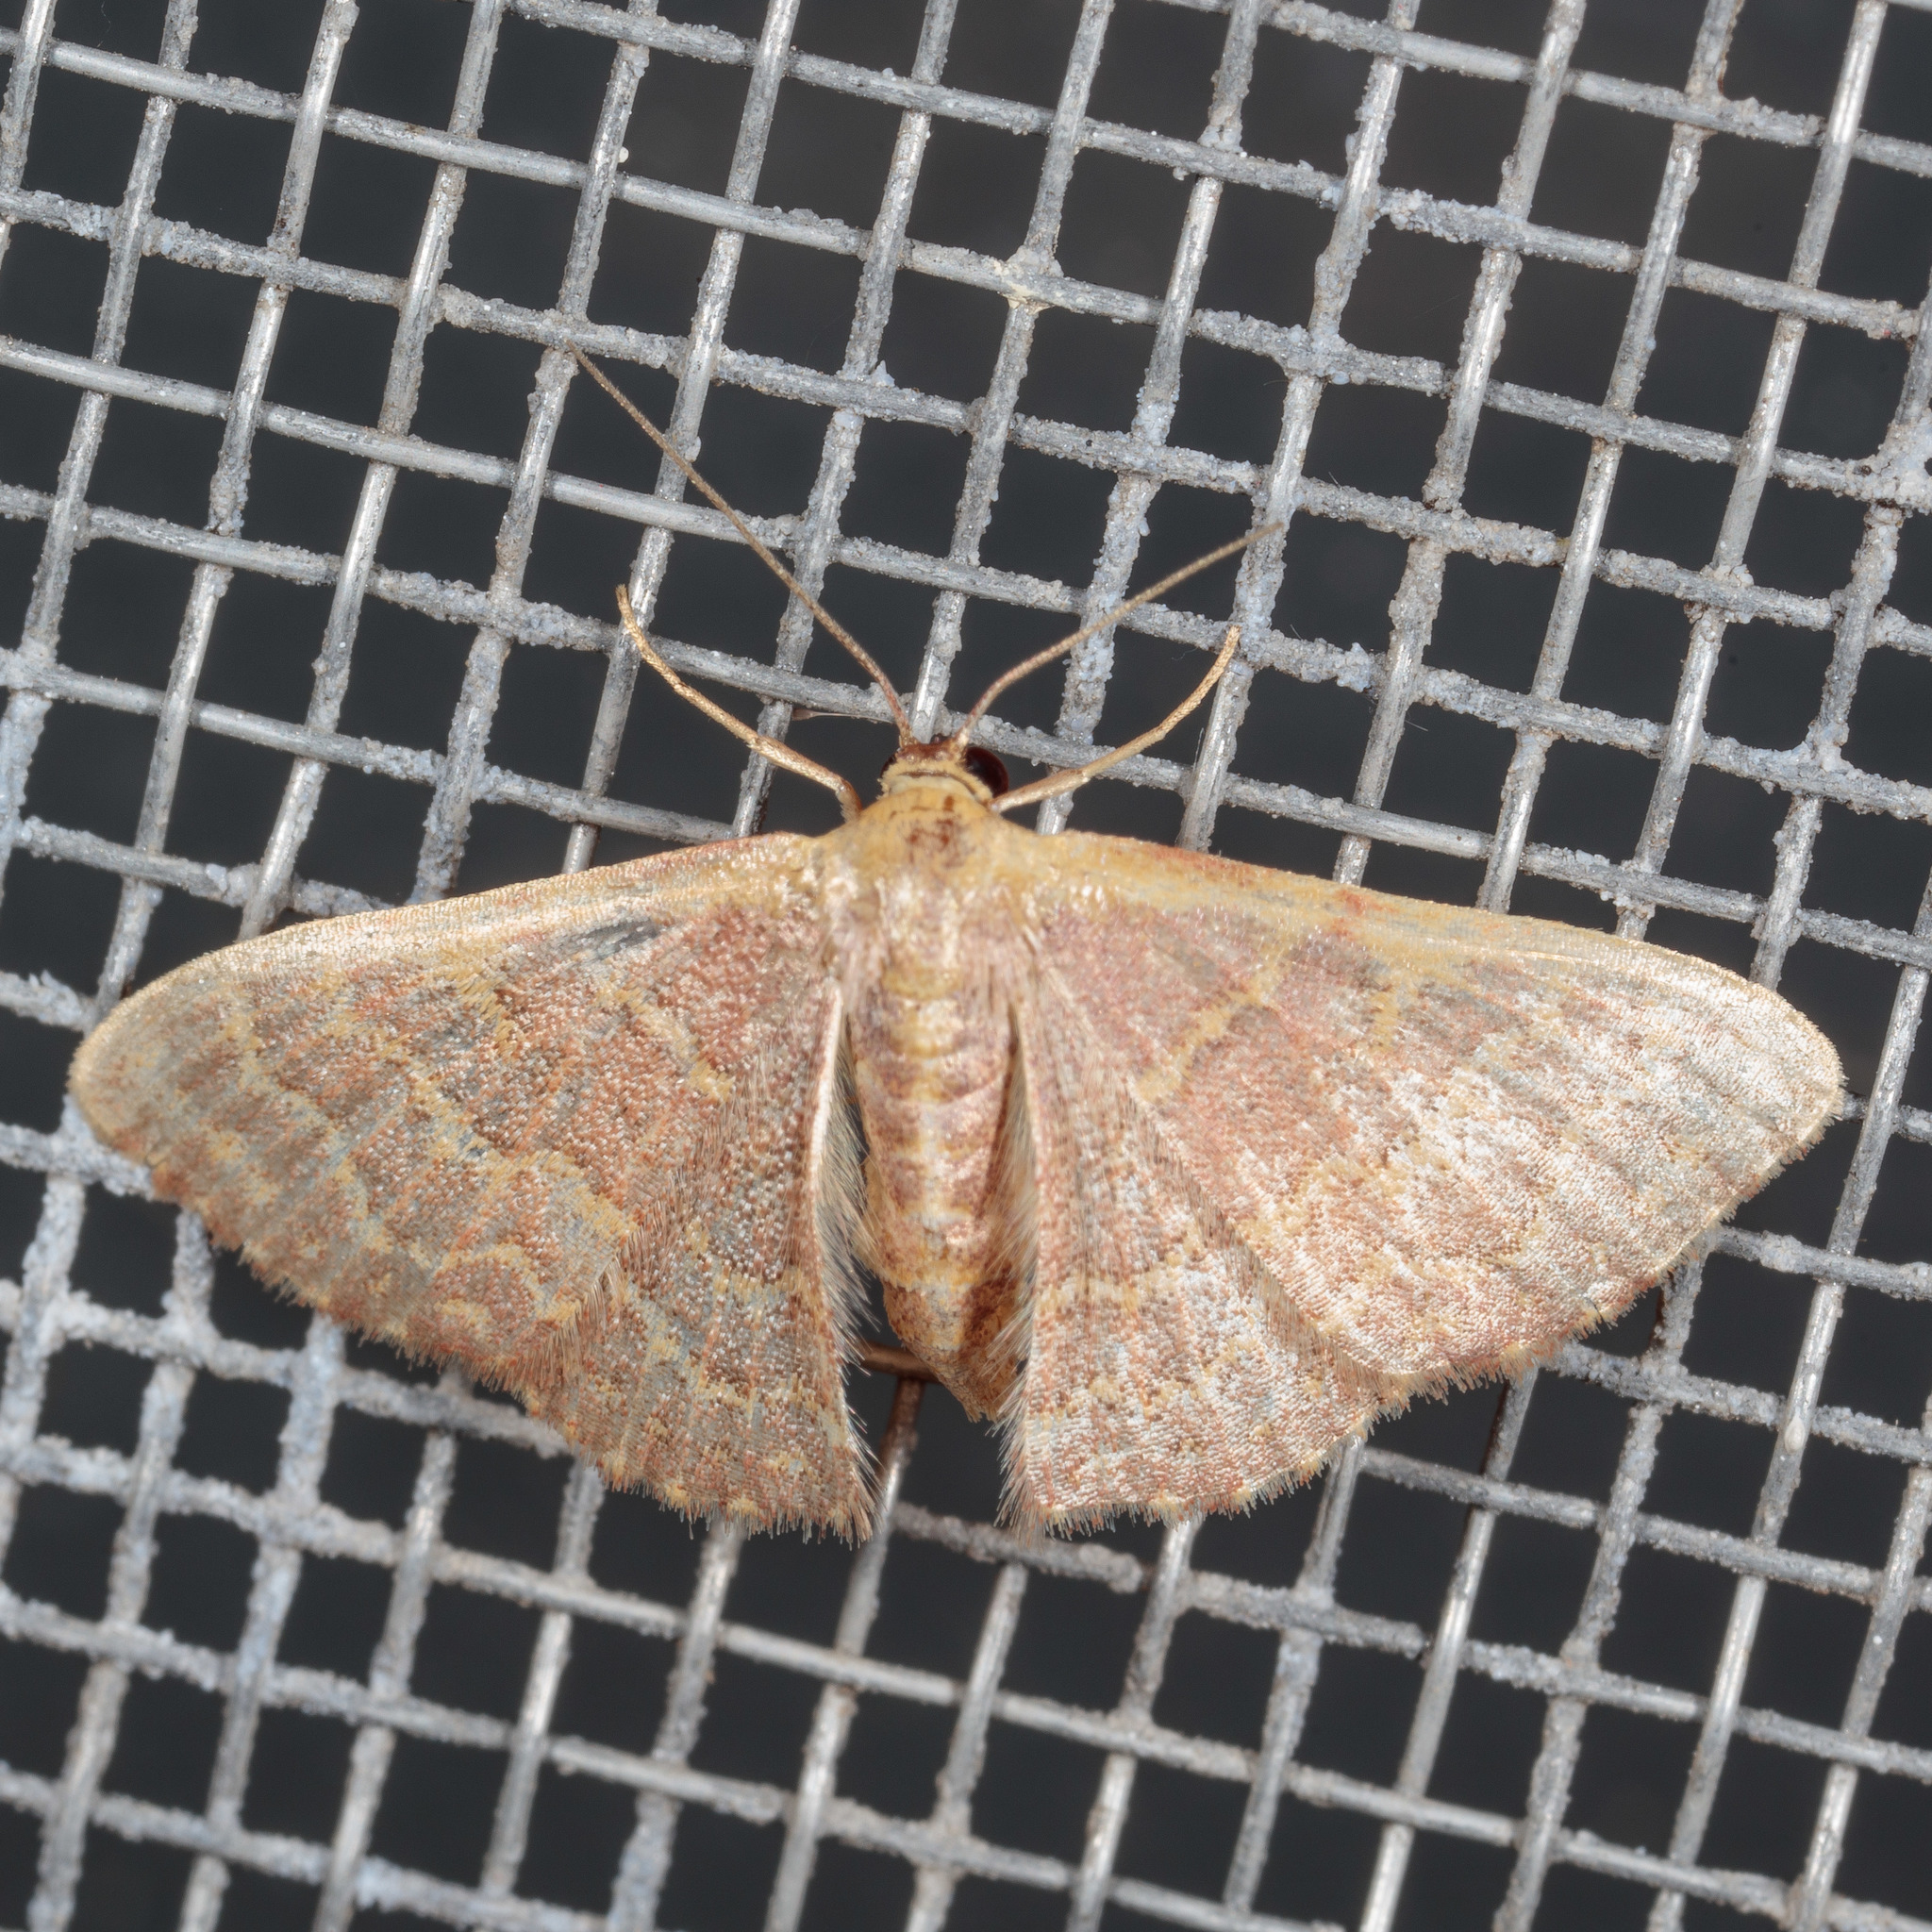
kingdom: Animalia
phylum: Arthropoda
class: Insecta
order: Lepidoptera
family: Geometridae
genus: Leptostales
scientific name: Leptostales pannaria
